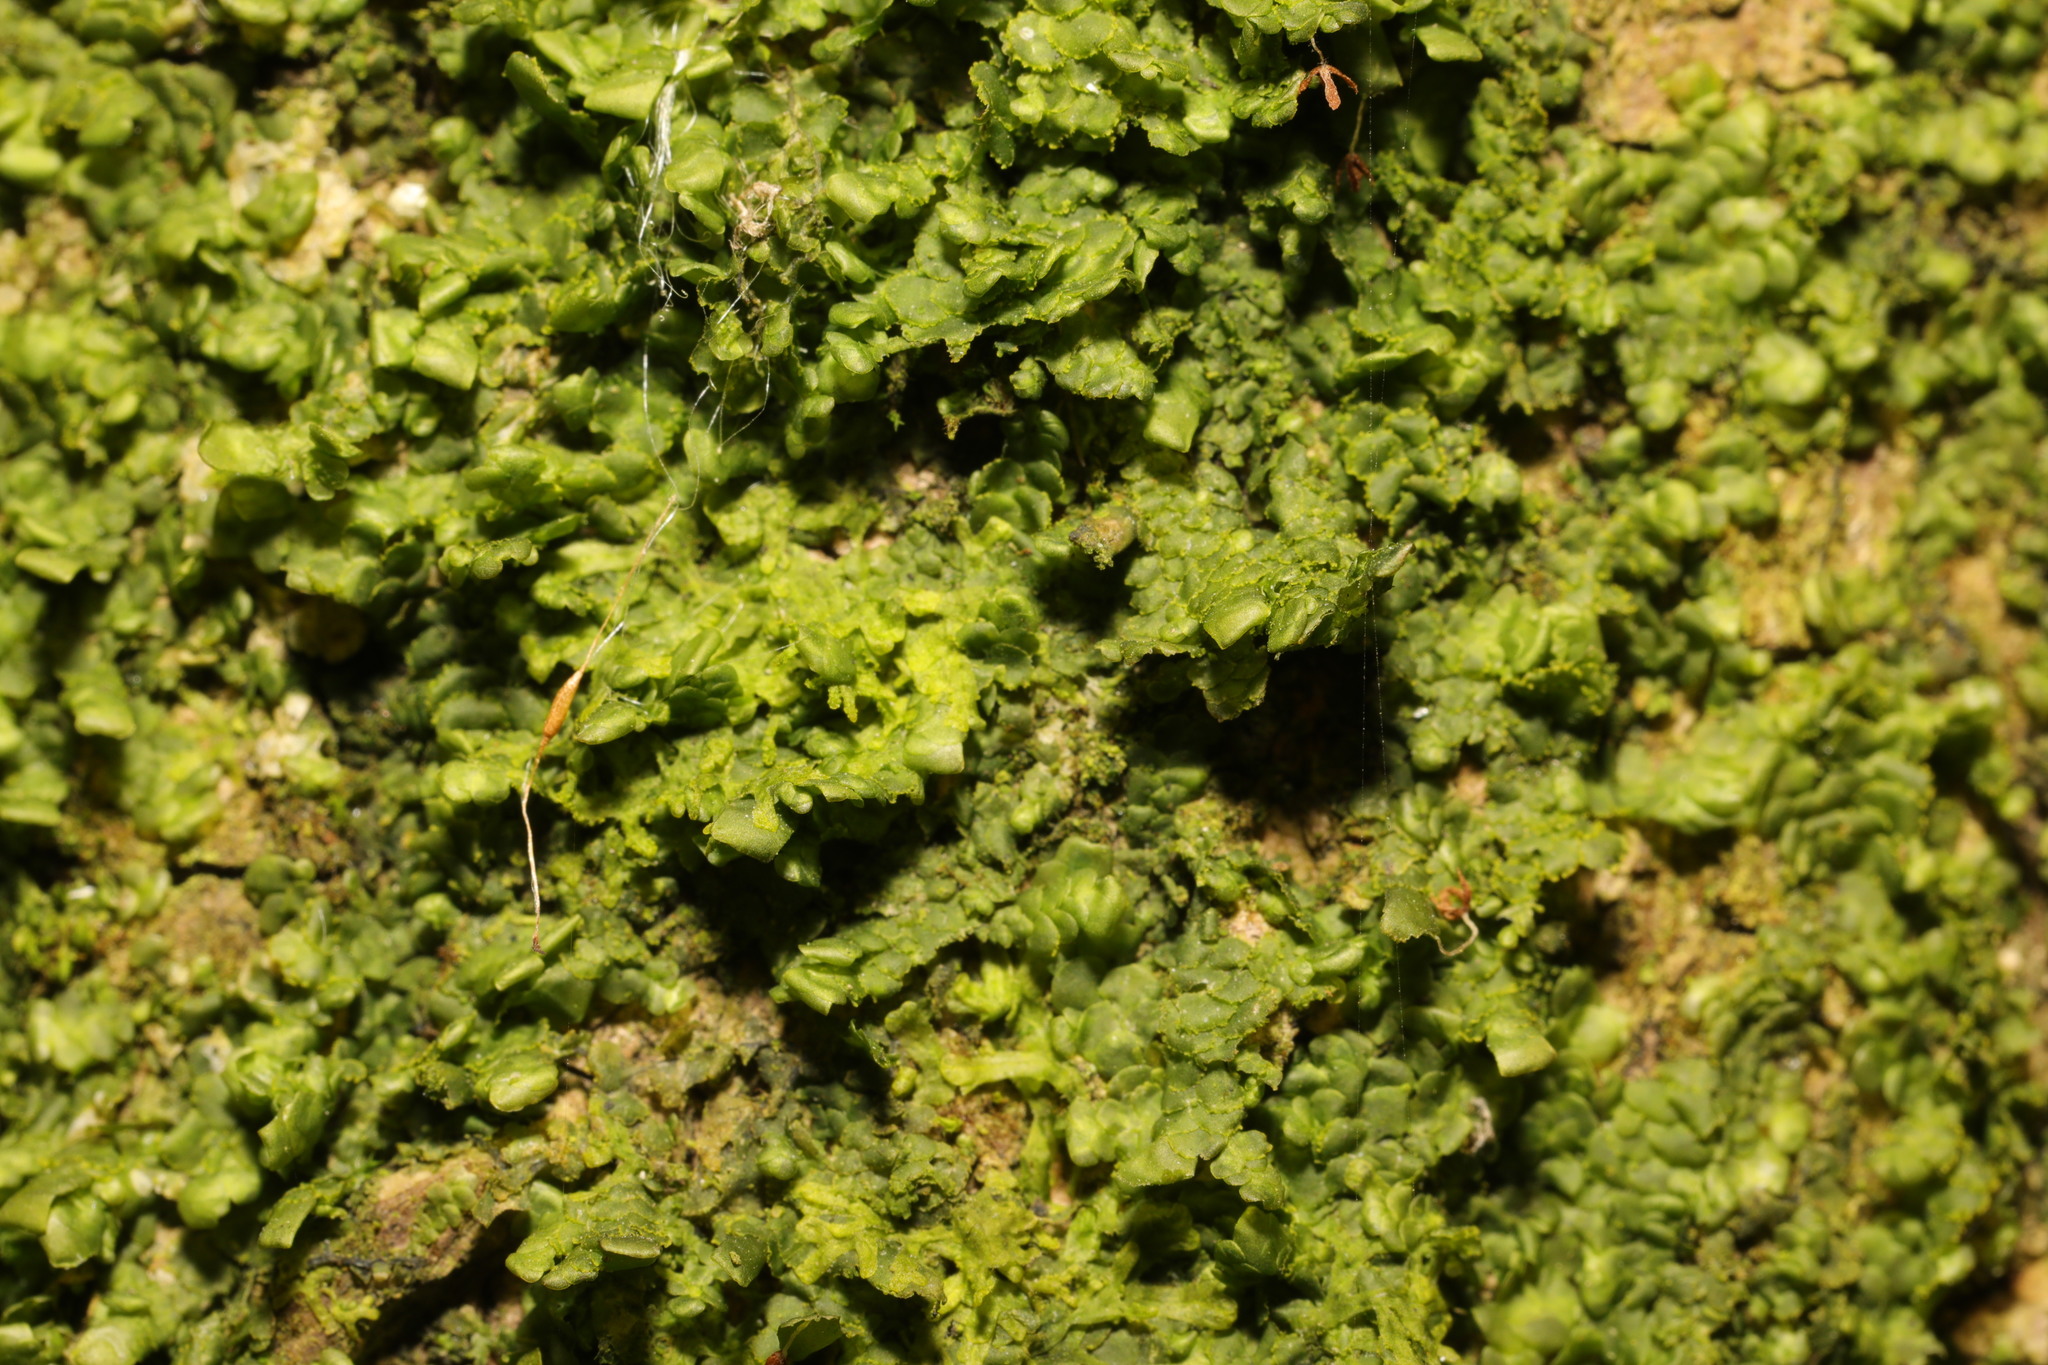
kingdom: Plantae
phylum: Marchantiophyta
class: Jungermanniopsida
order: Porellales
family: Radulaceae
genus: Radula
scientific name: Radula complanata
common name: Flat-leaved scalewort
